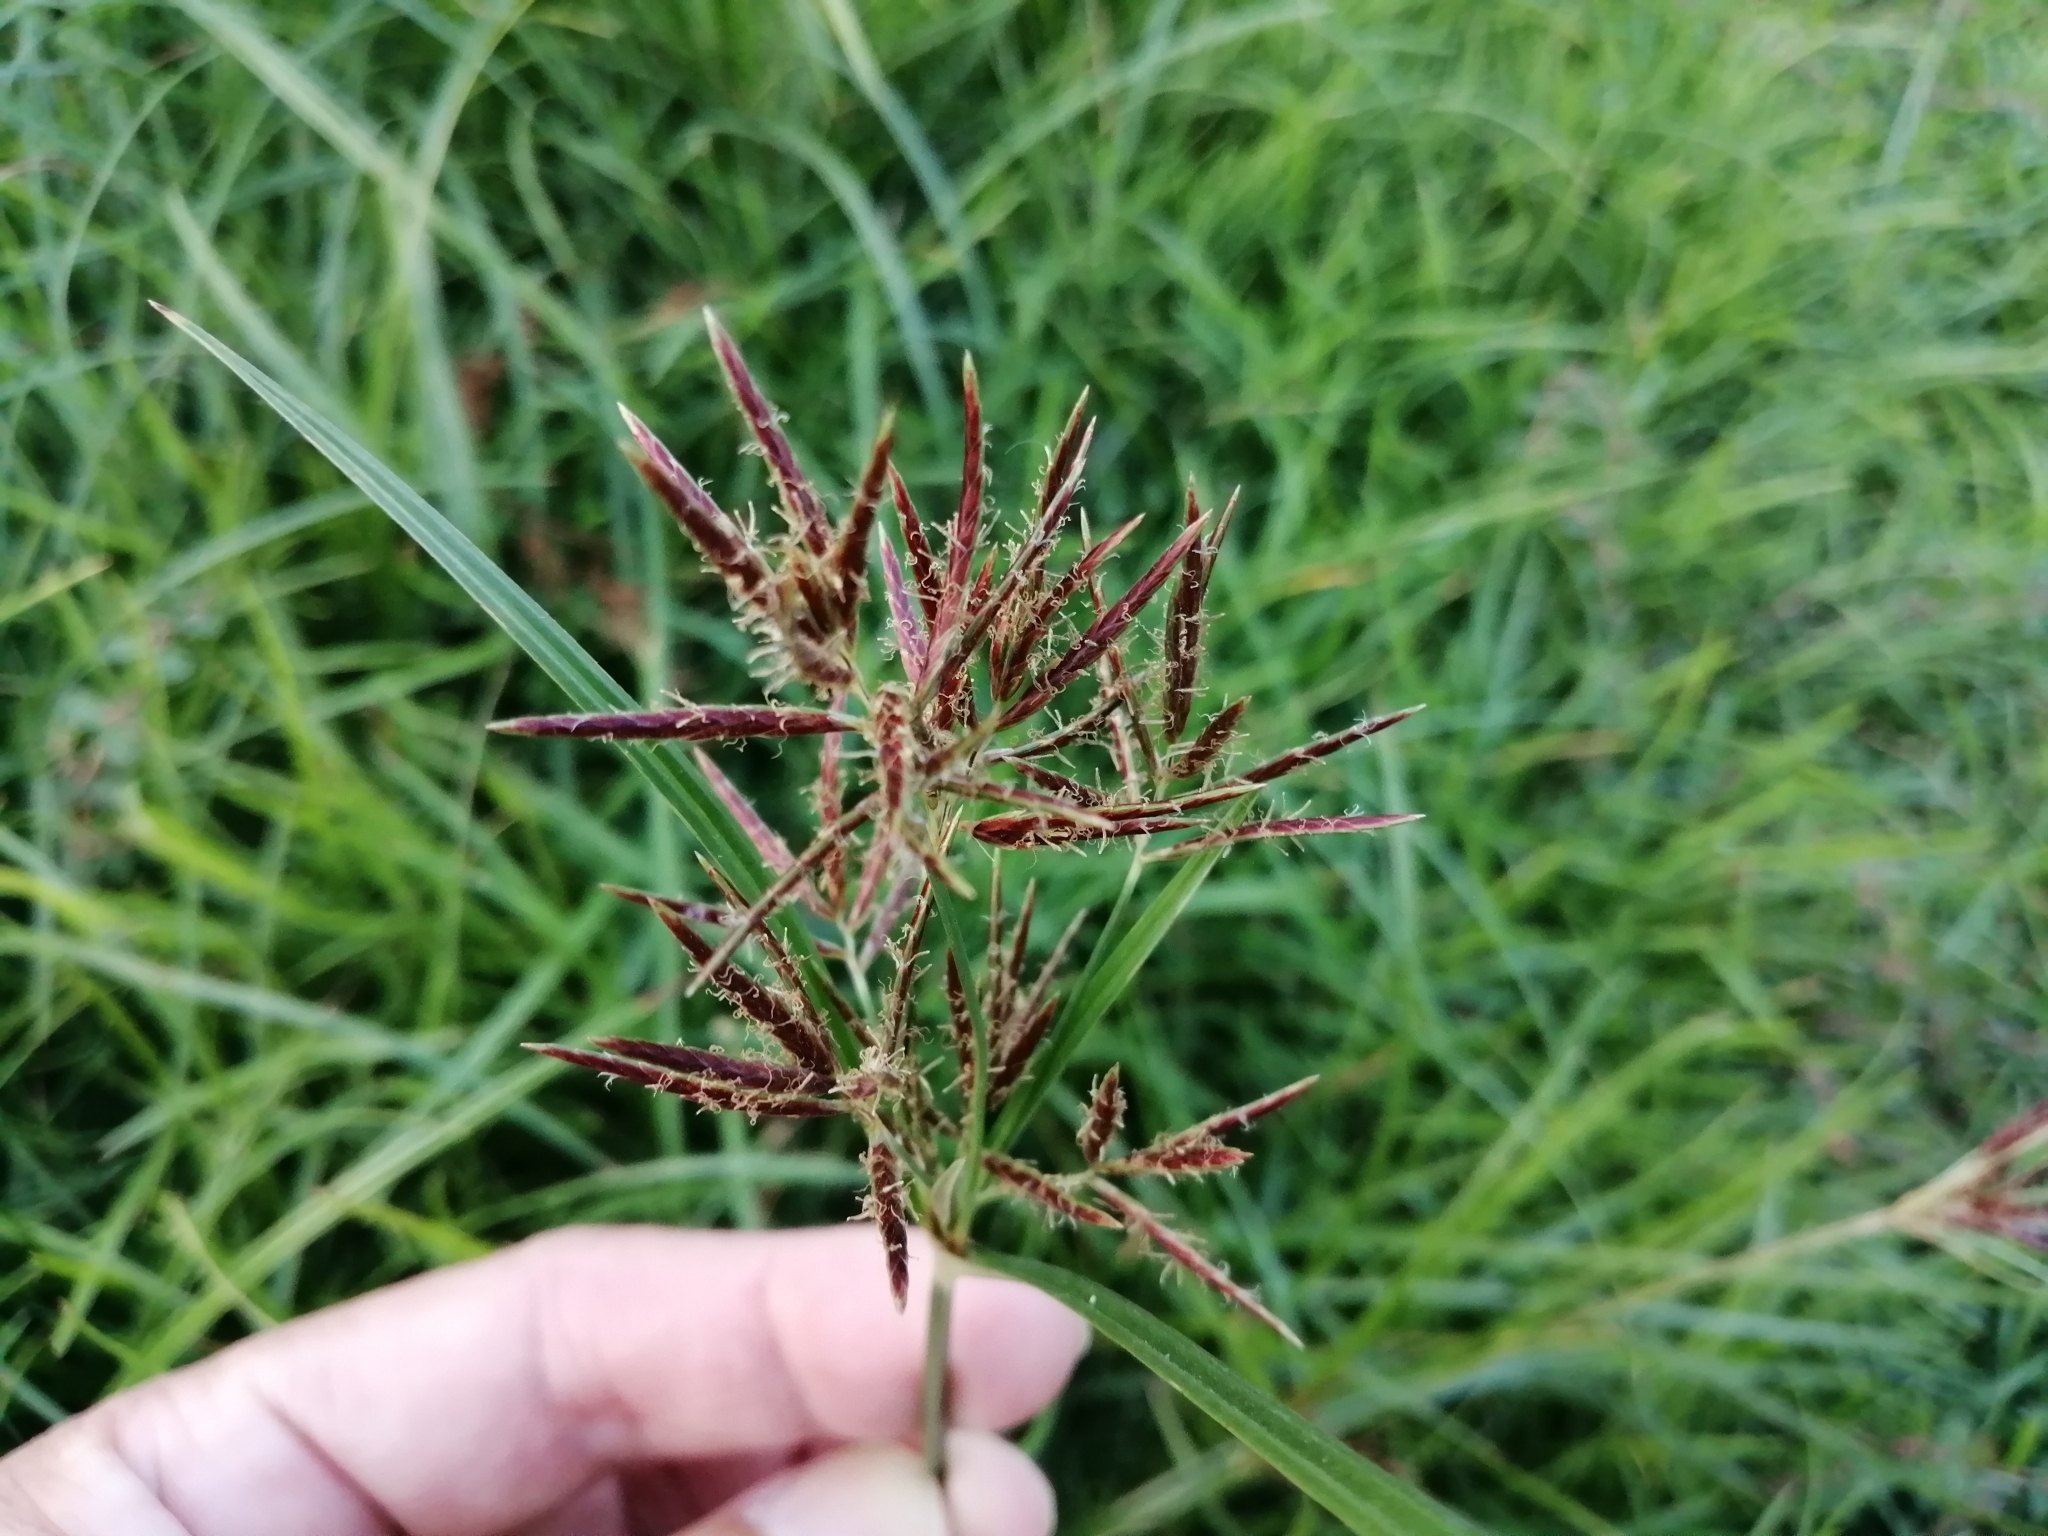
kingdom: Plantae
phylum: Tracheophyta
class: Liliopsida
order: Poales
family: Cyperaceae
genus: Cyperus
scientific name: Cyperus rotundus
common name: Nutgrass
